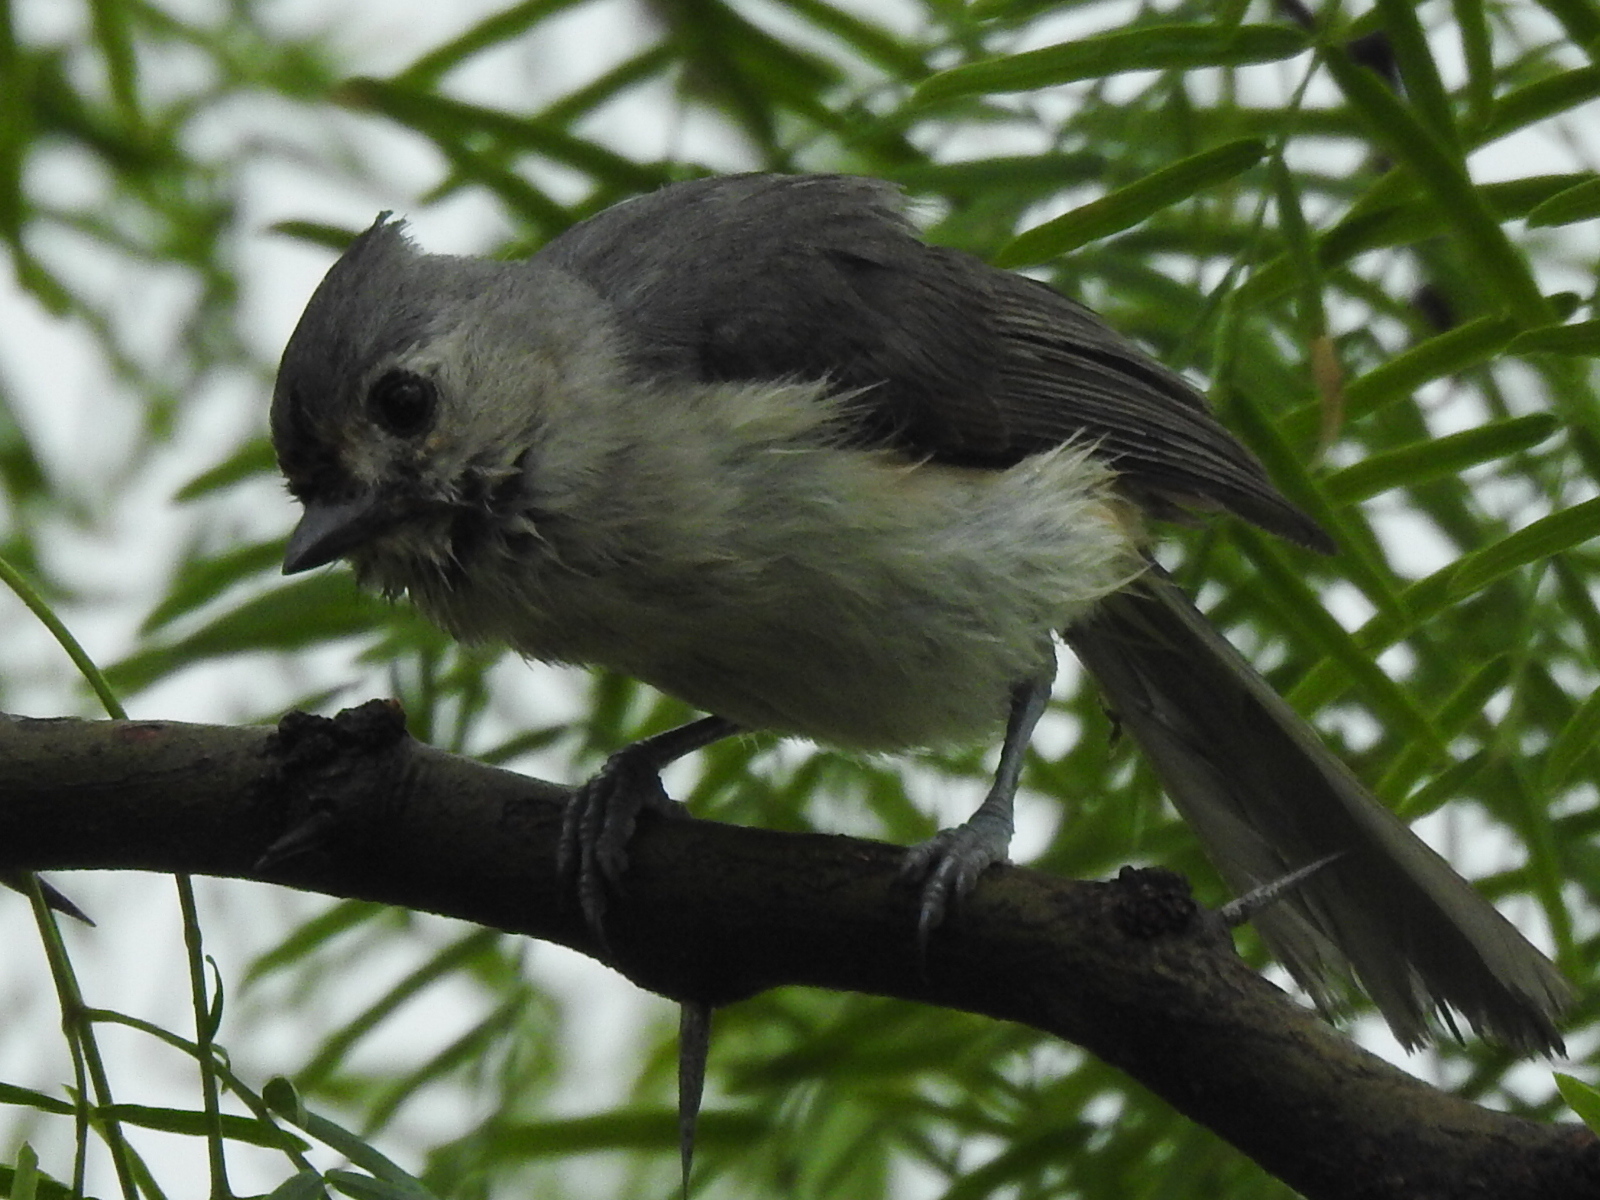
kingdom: Animalia
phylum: Chordata
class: Aves
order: Passeriformes
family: Paridae
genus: Baeolophus
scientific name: Baeolophus bicolor
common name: Tufted titmouse
